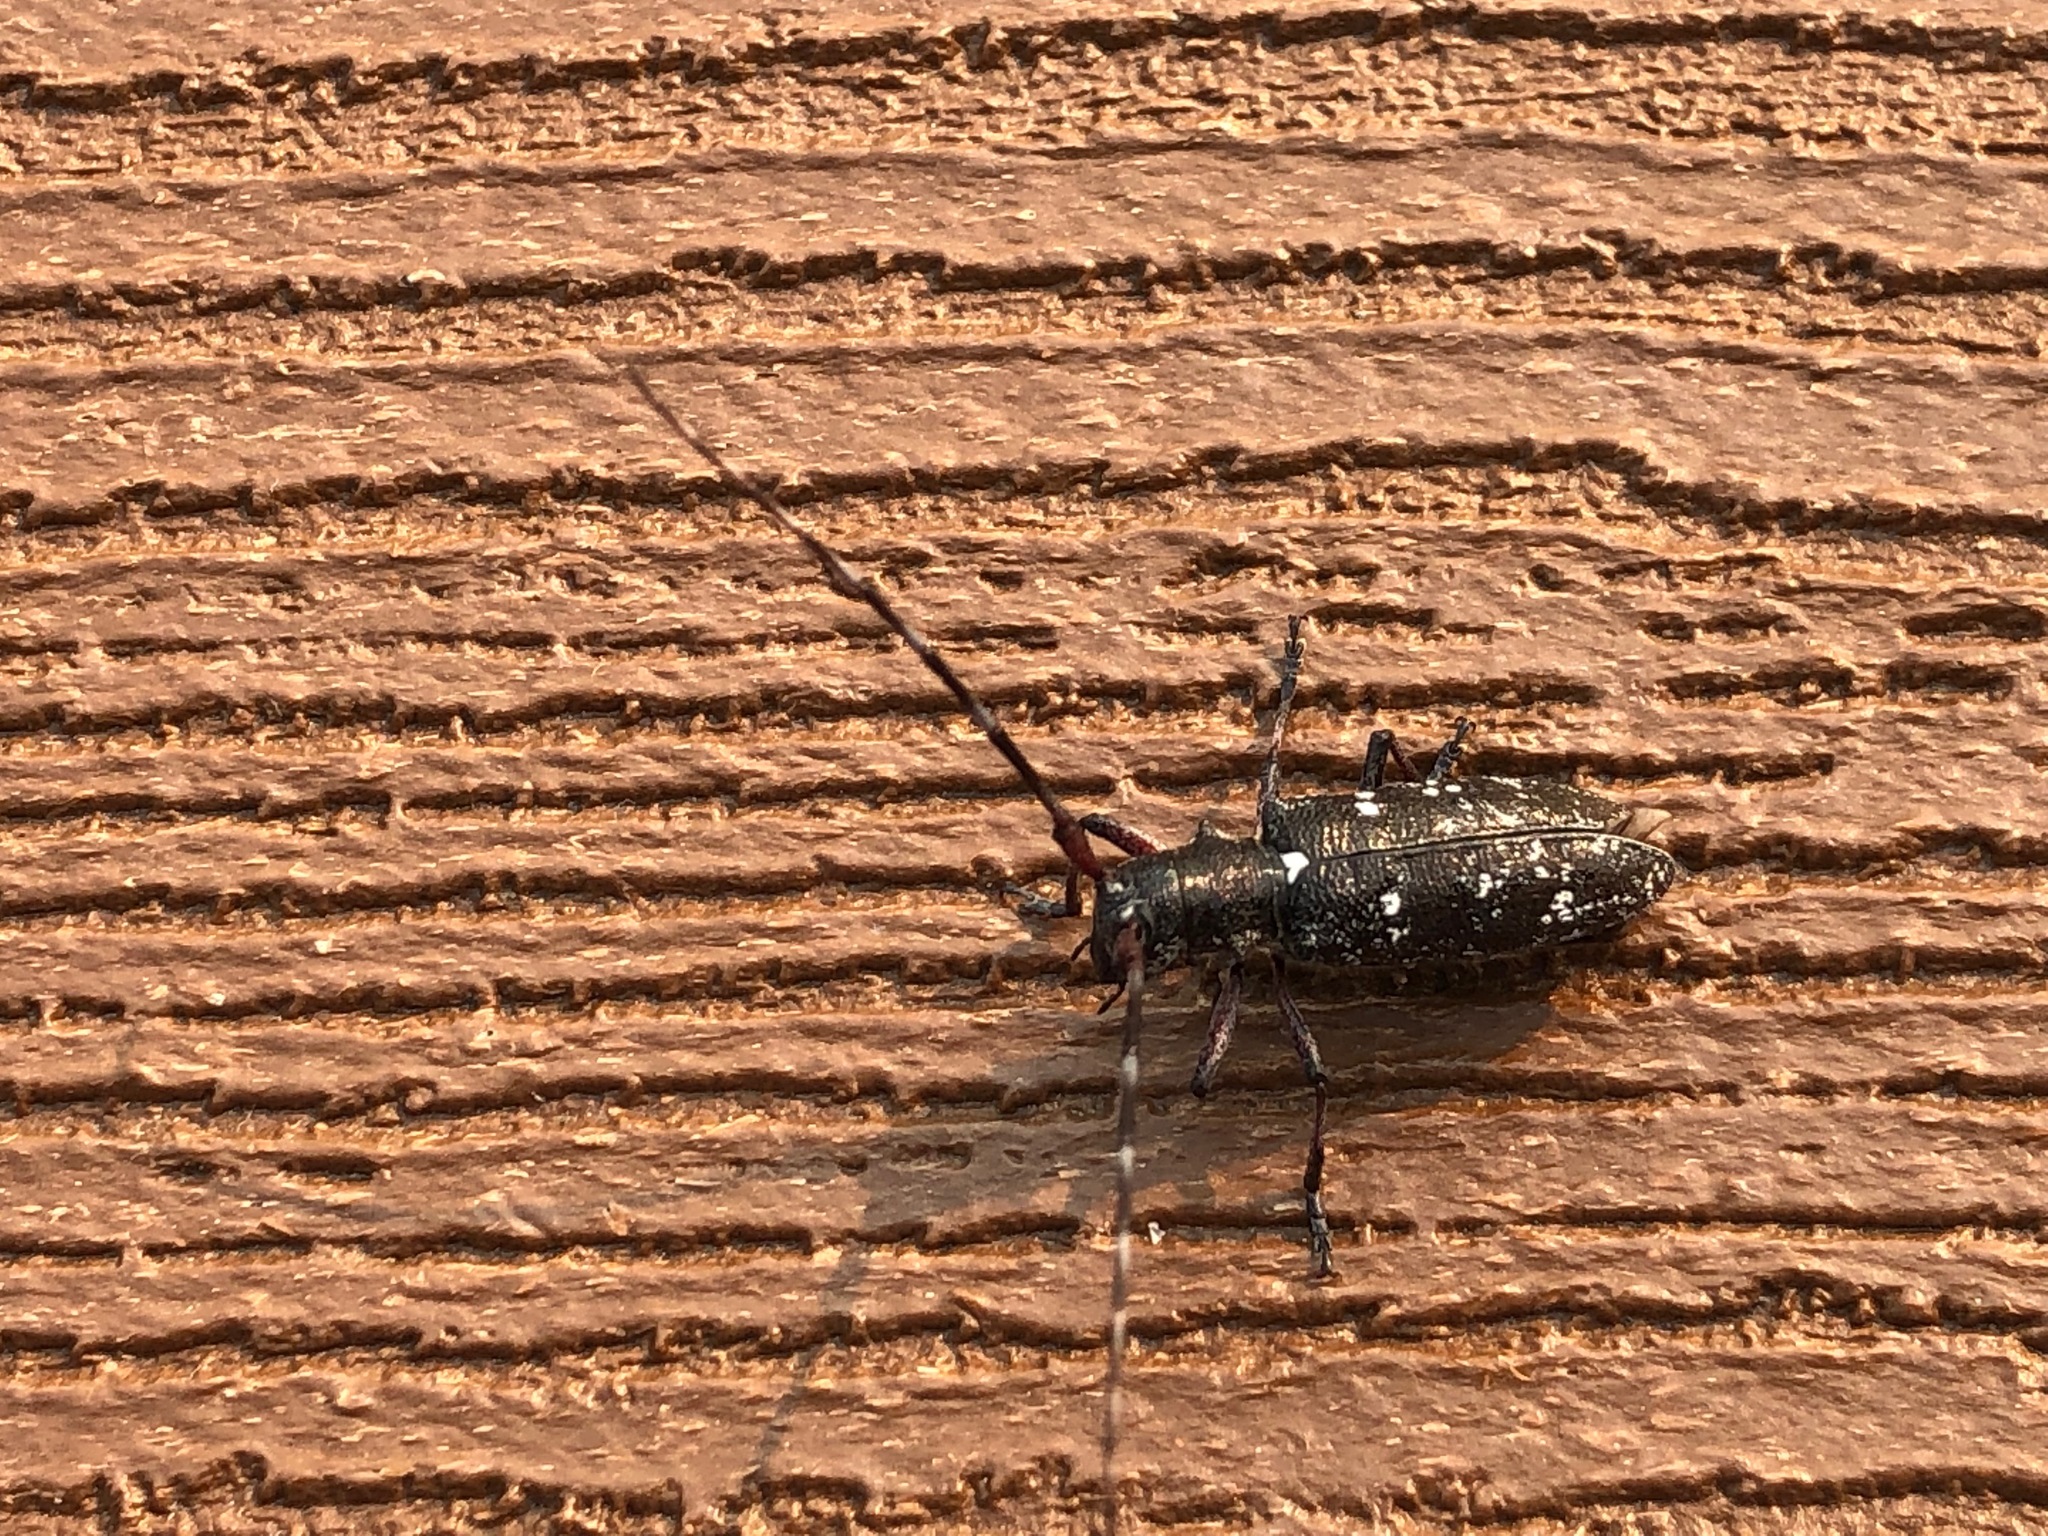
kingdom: Animalia
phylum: Arthropoda
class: Insecta
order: Coleoptera
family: Cerambycidae
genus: Monochamus
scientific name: Monochamus scutellatus
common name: White-spotted sawyer beetle
